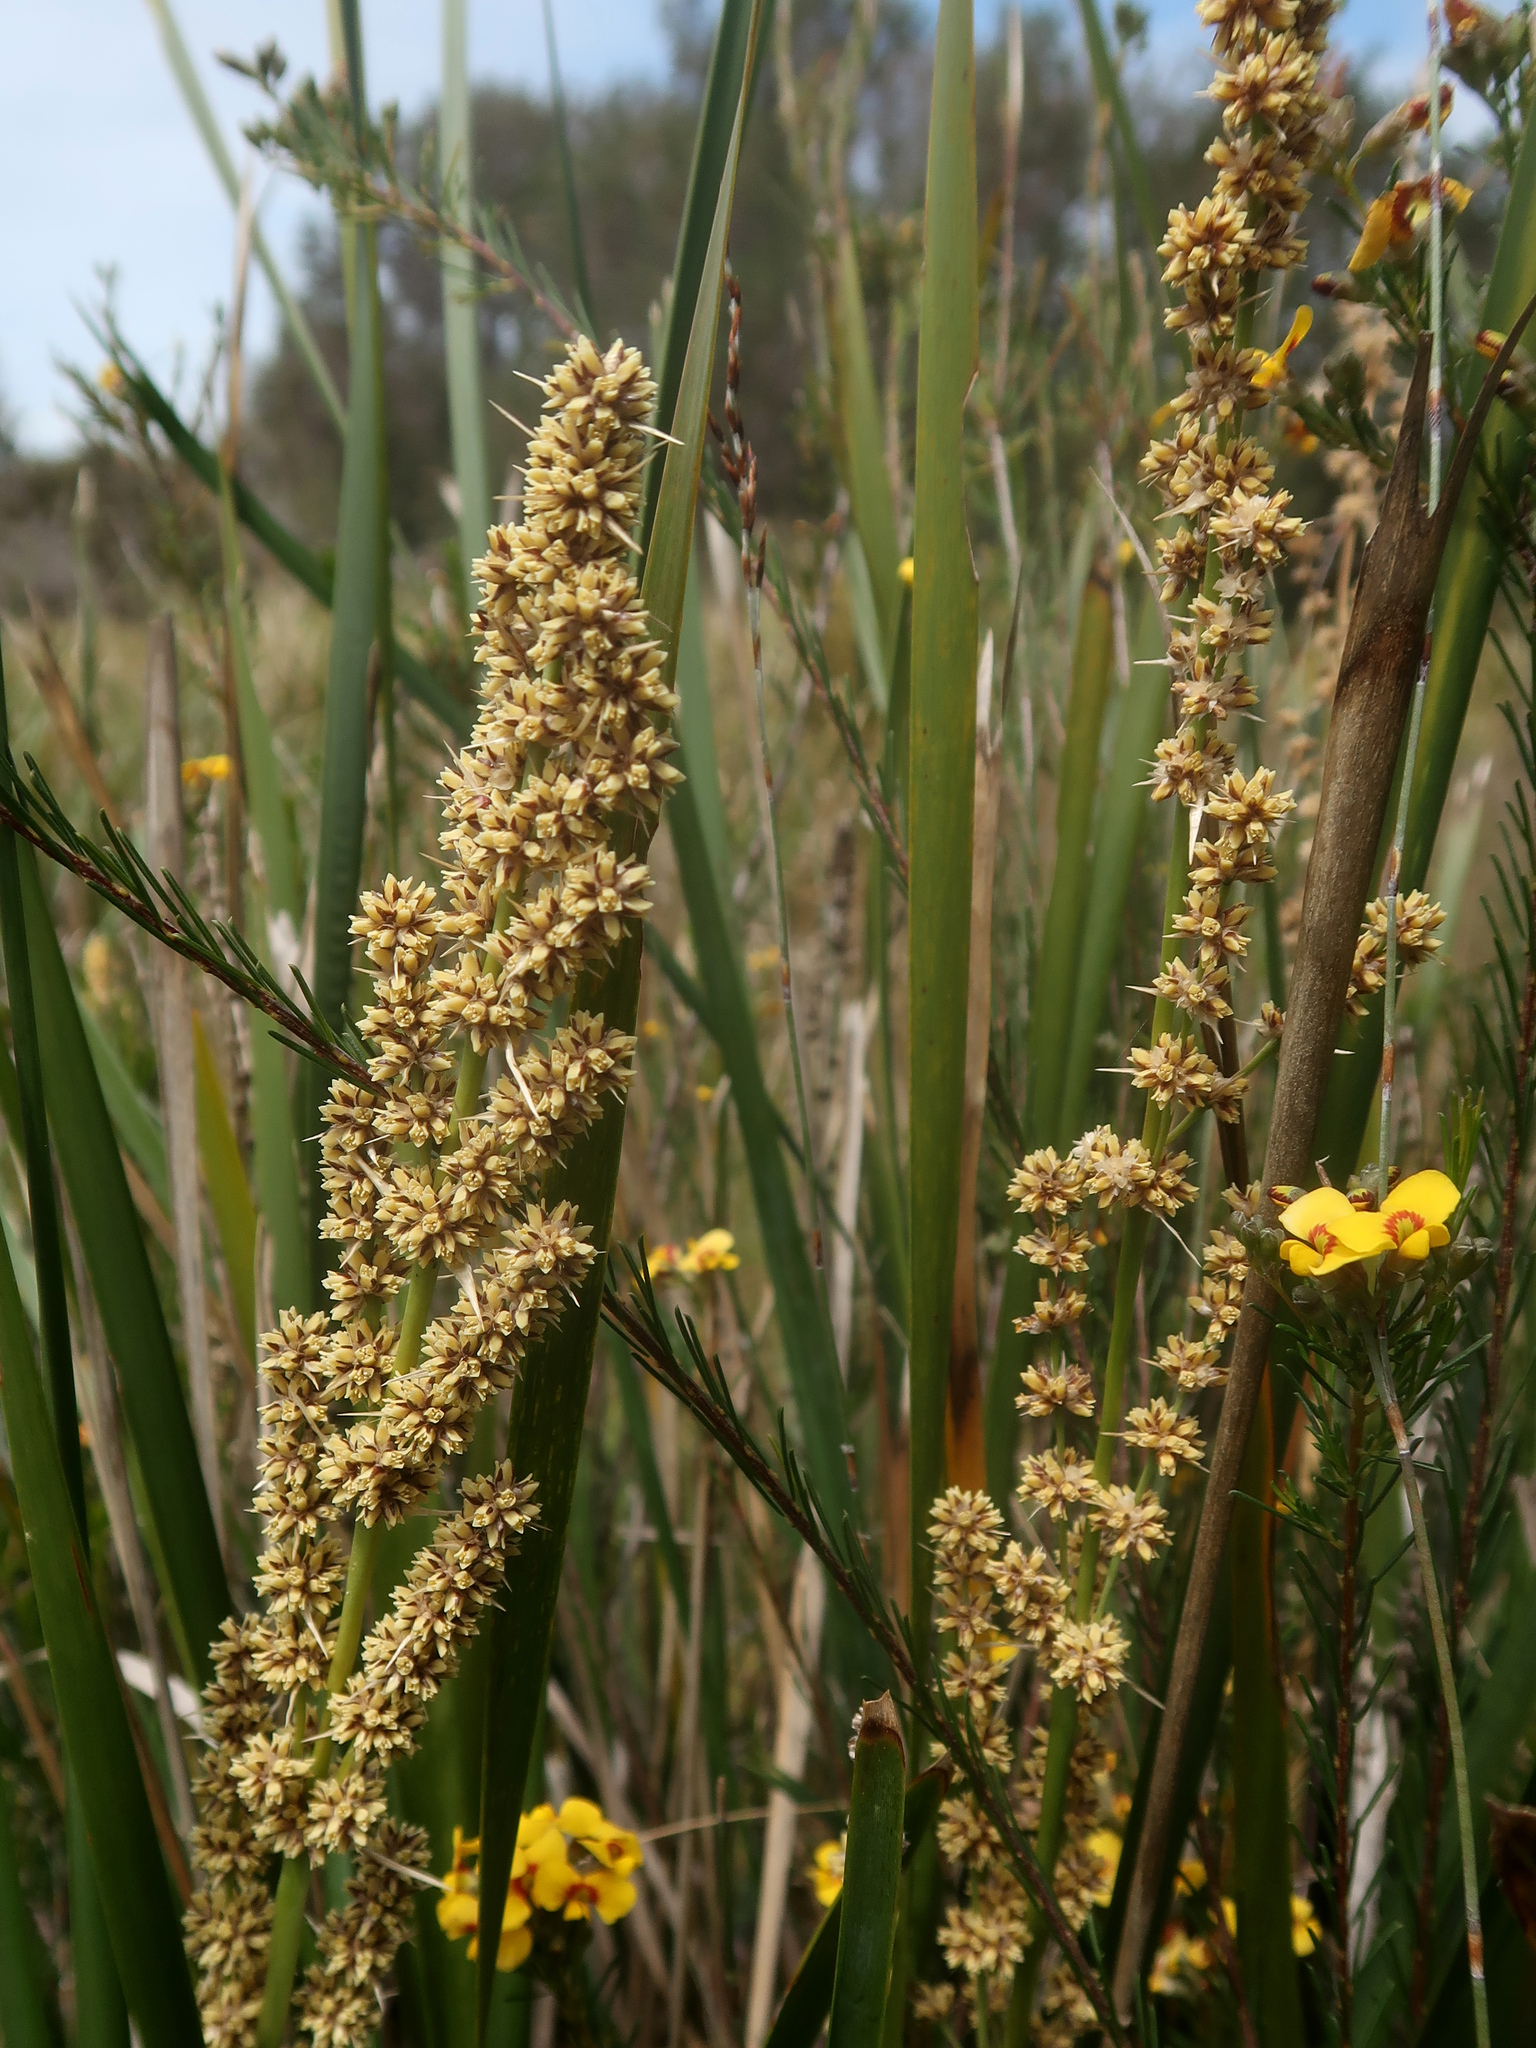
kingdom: Plantae
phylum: Tracheophyta
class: Liliopsida
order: Asparagales
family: Asparagaceae
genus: Lomandra
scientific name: Lomandra longifolia
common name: Longleaf mat-rush
